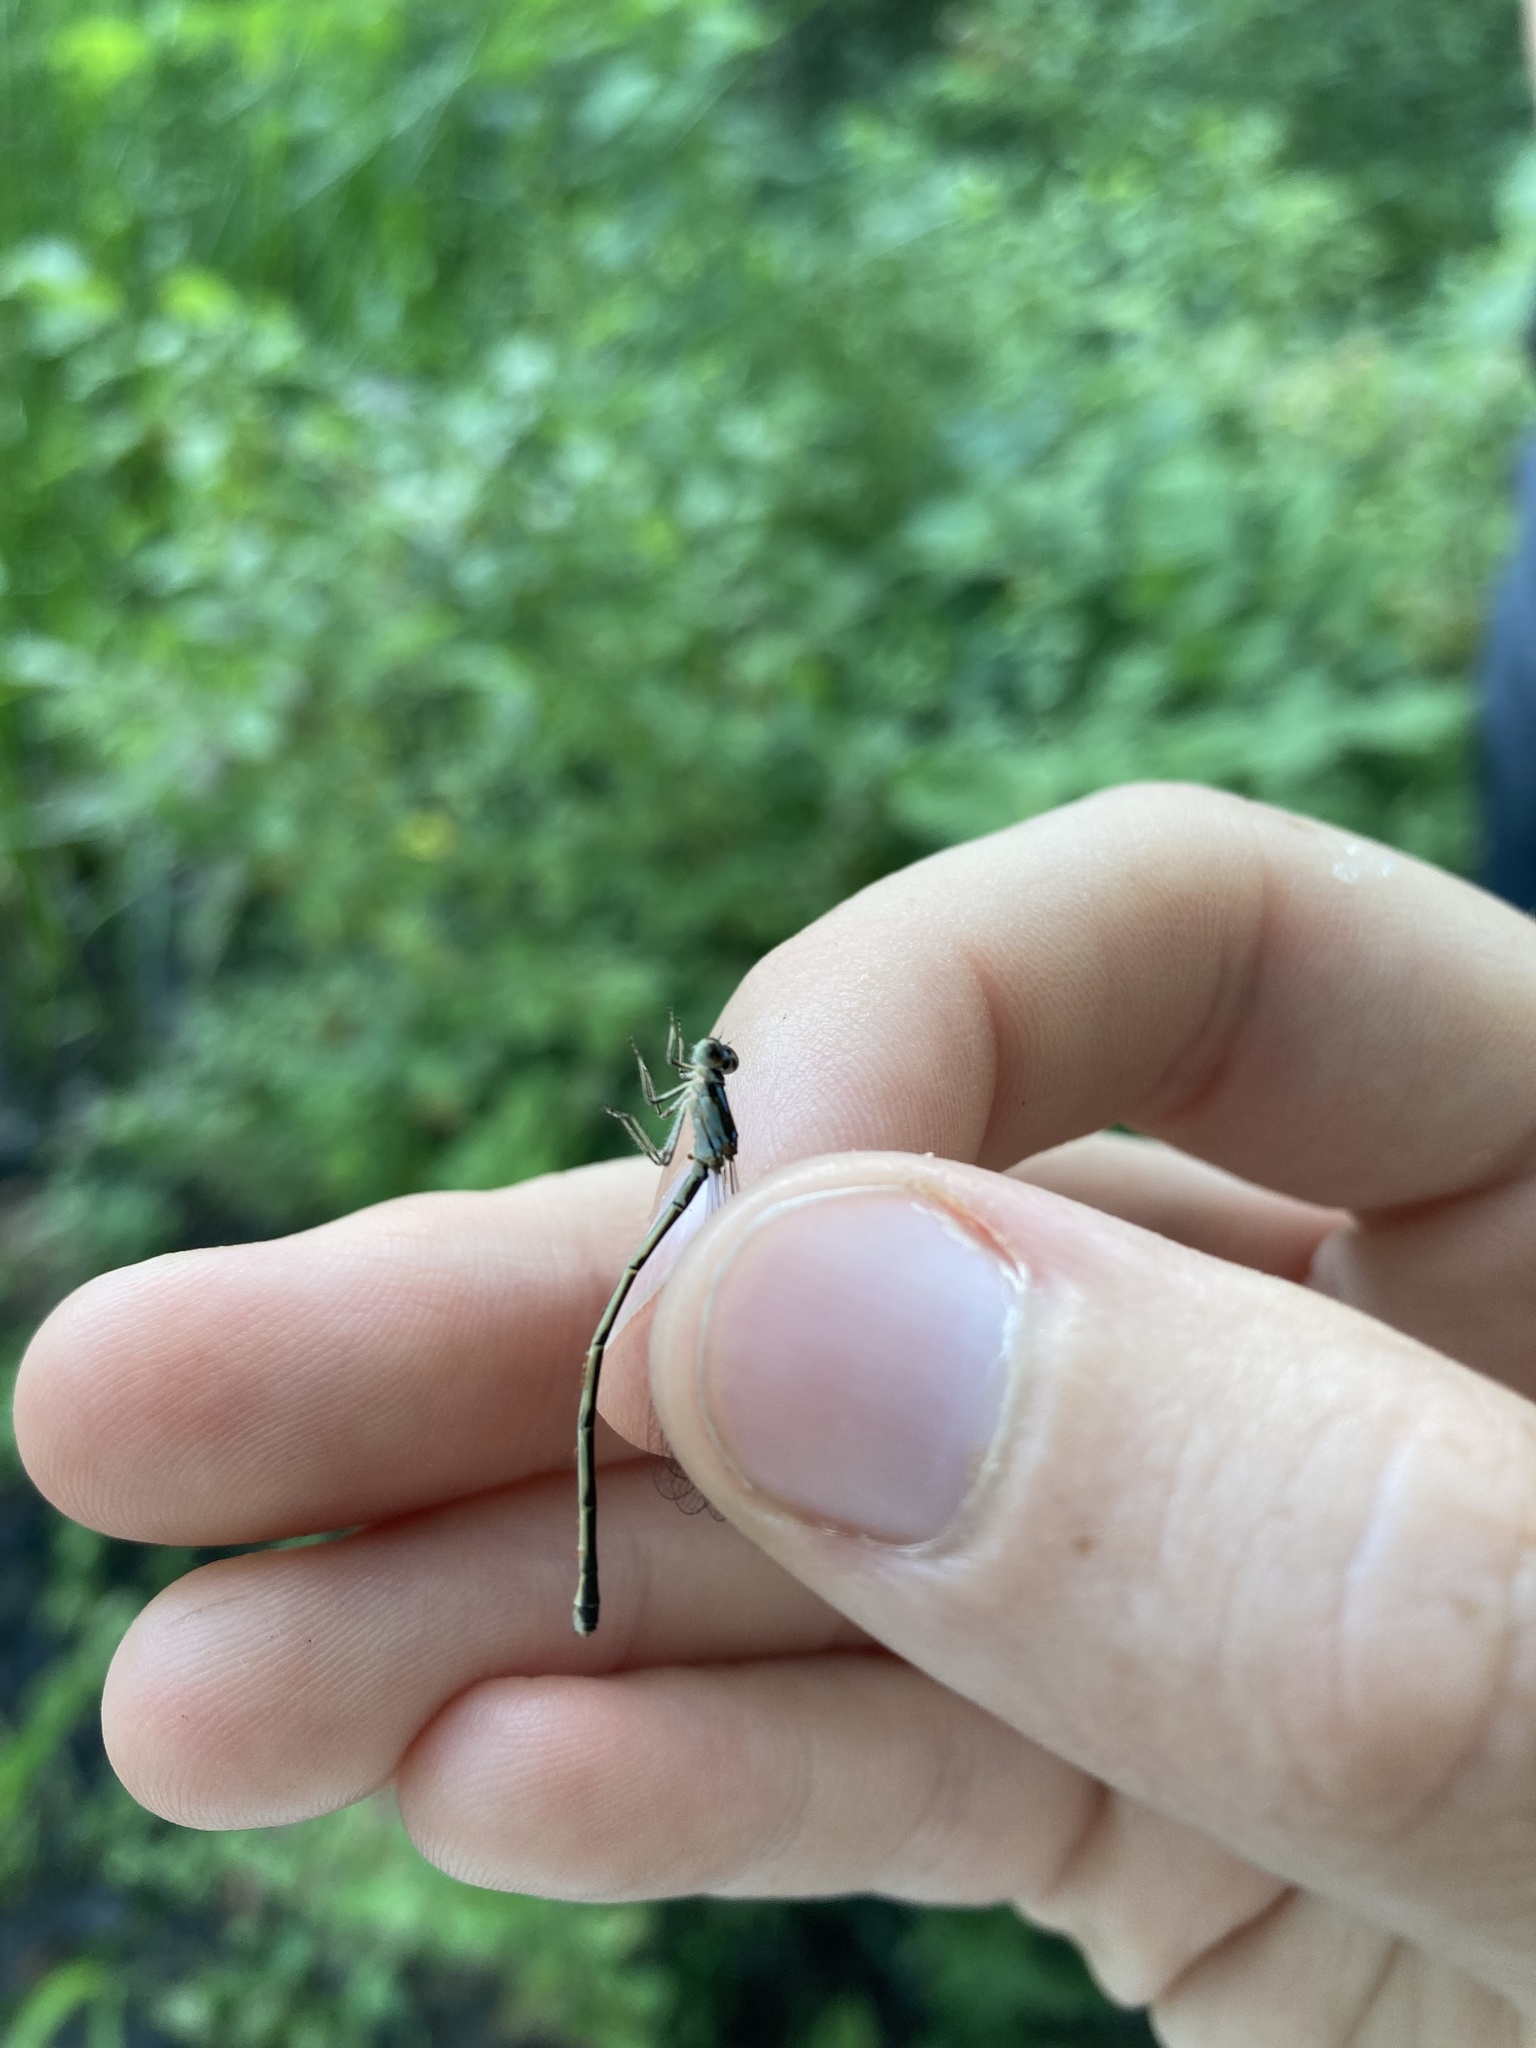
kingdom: Animalia
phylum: Arthropoda
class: Insecta
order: Odonata
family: Coenagrionidae
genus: Ischnura
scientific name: Ischnura posita
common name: Fragile forktail
